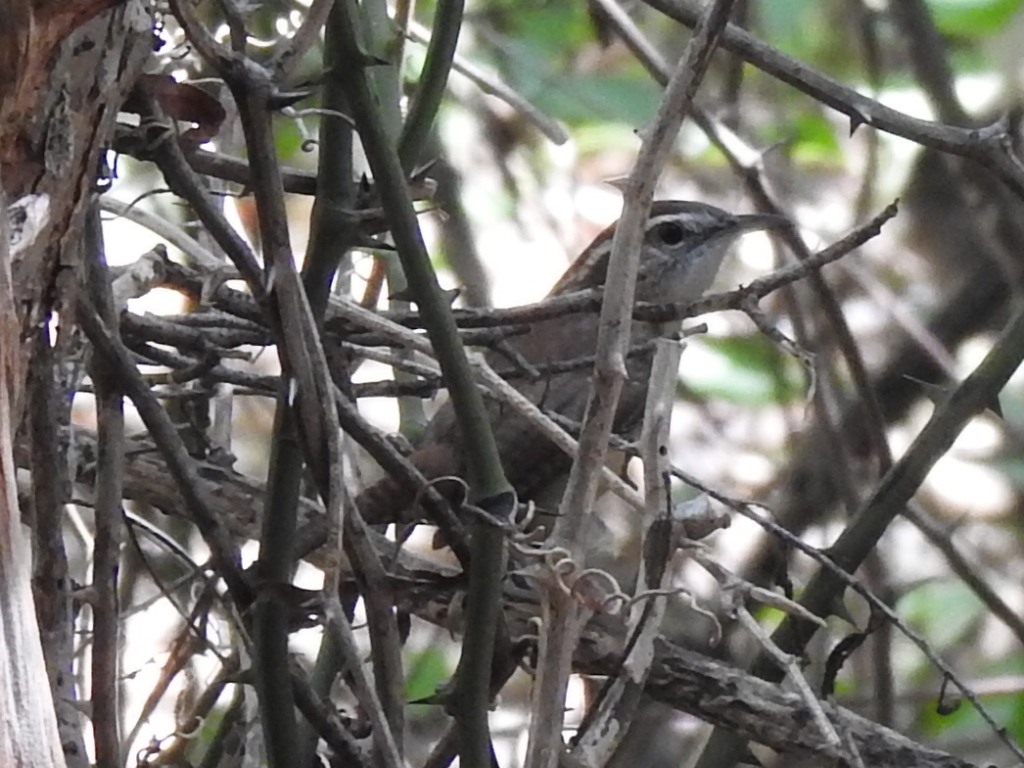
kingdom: Animalia
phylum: Chordata
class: Aves
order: Passeriformes
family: Troglodytidae
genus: Thryothorus
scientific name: Thryothorus ludovicianus
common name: Carolina wren
